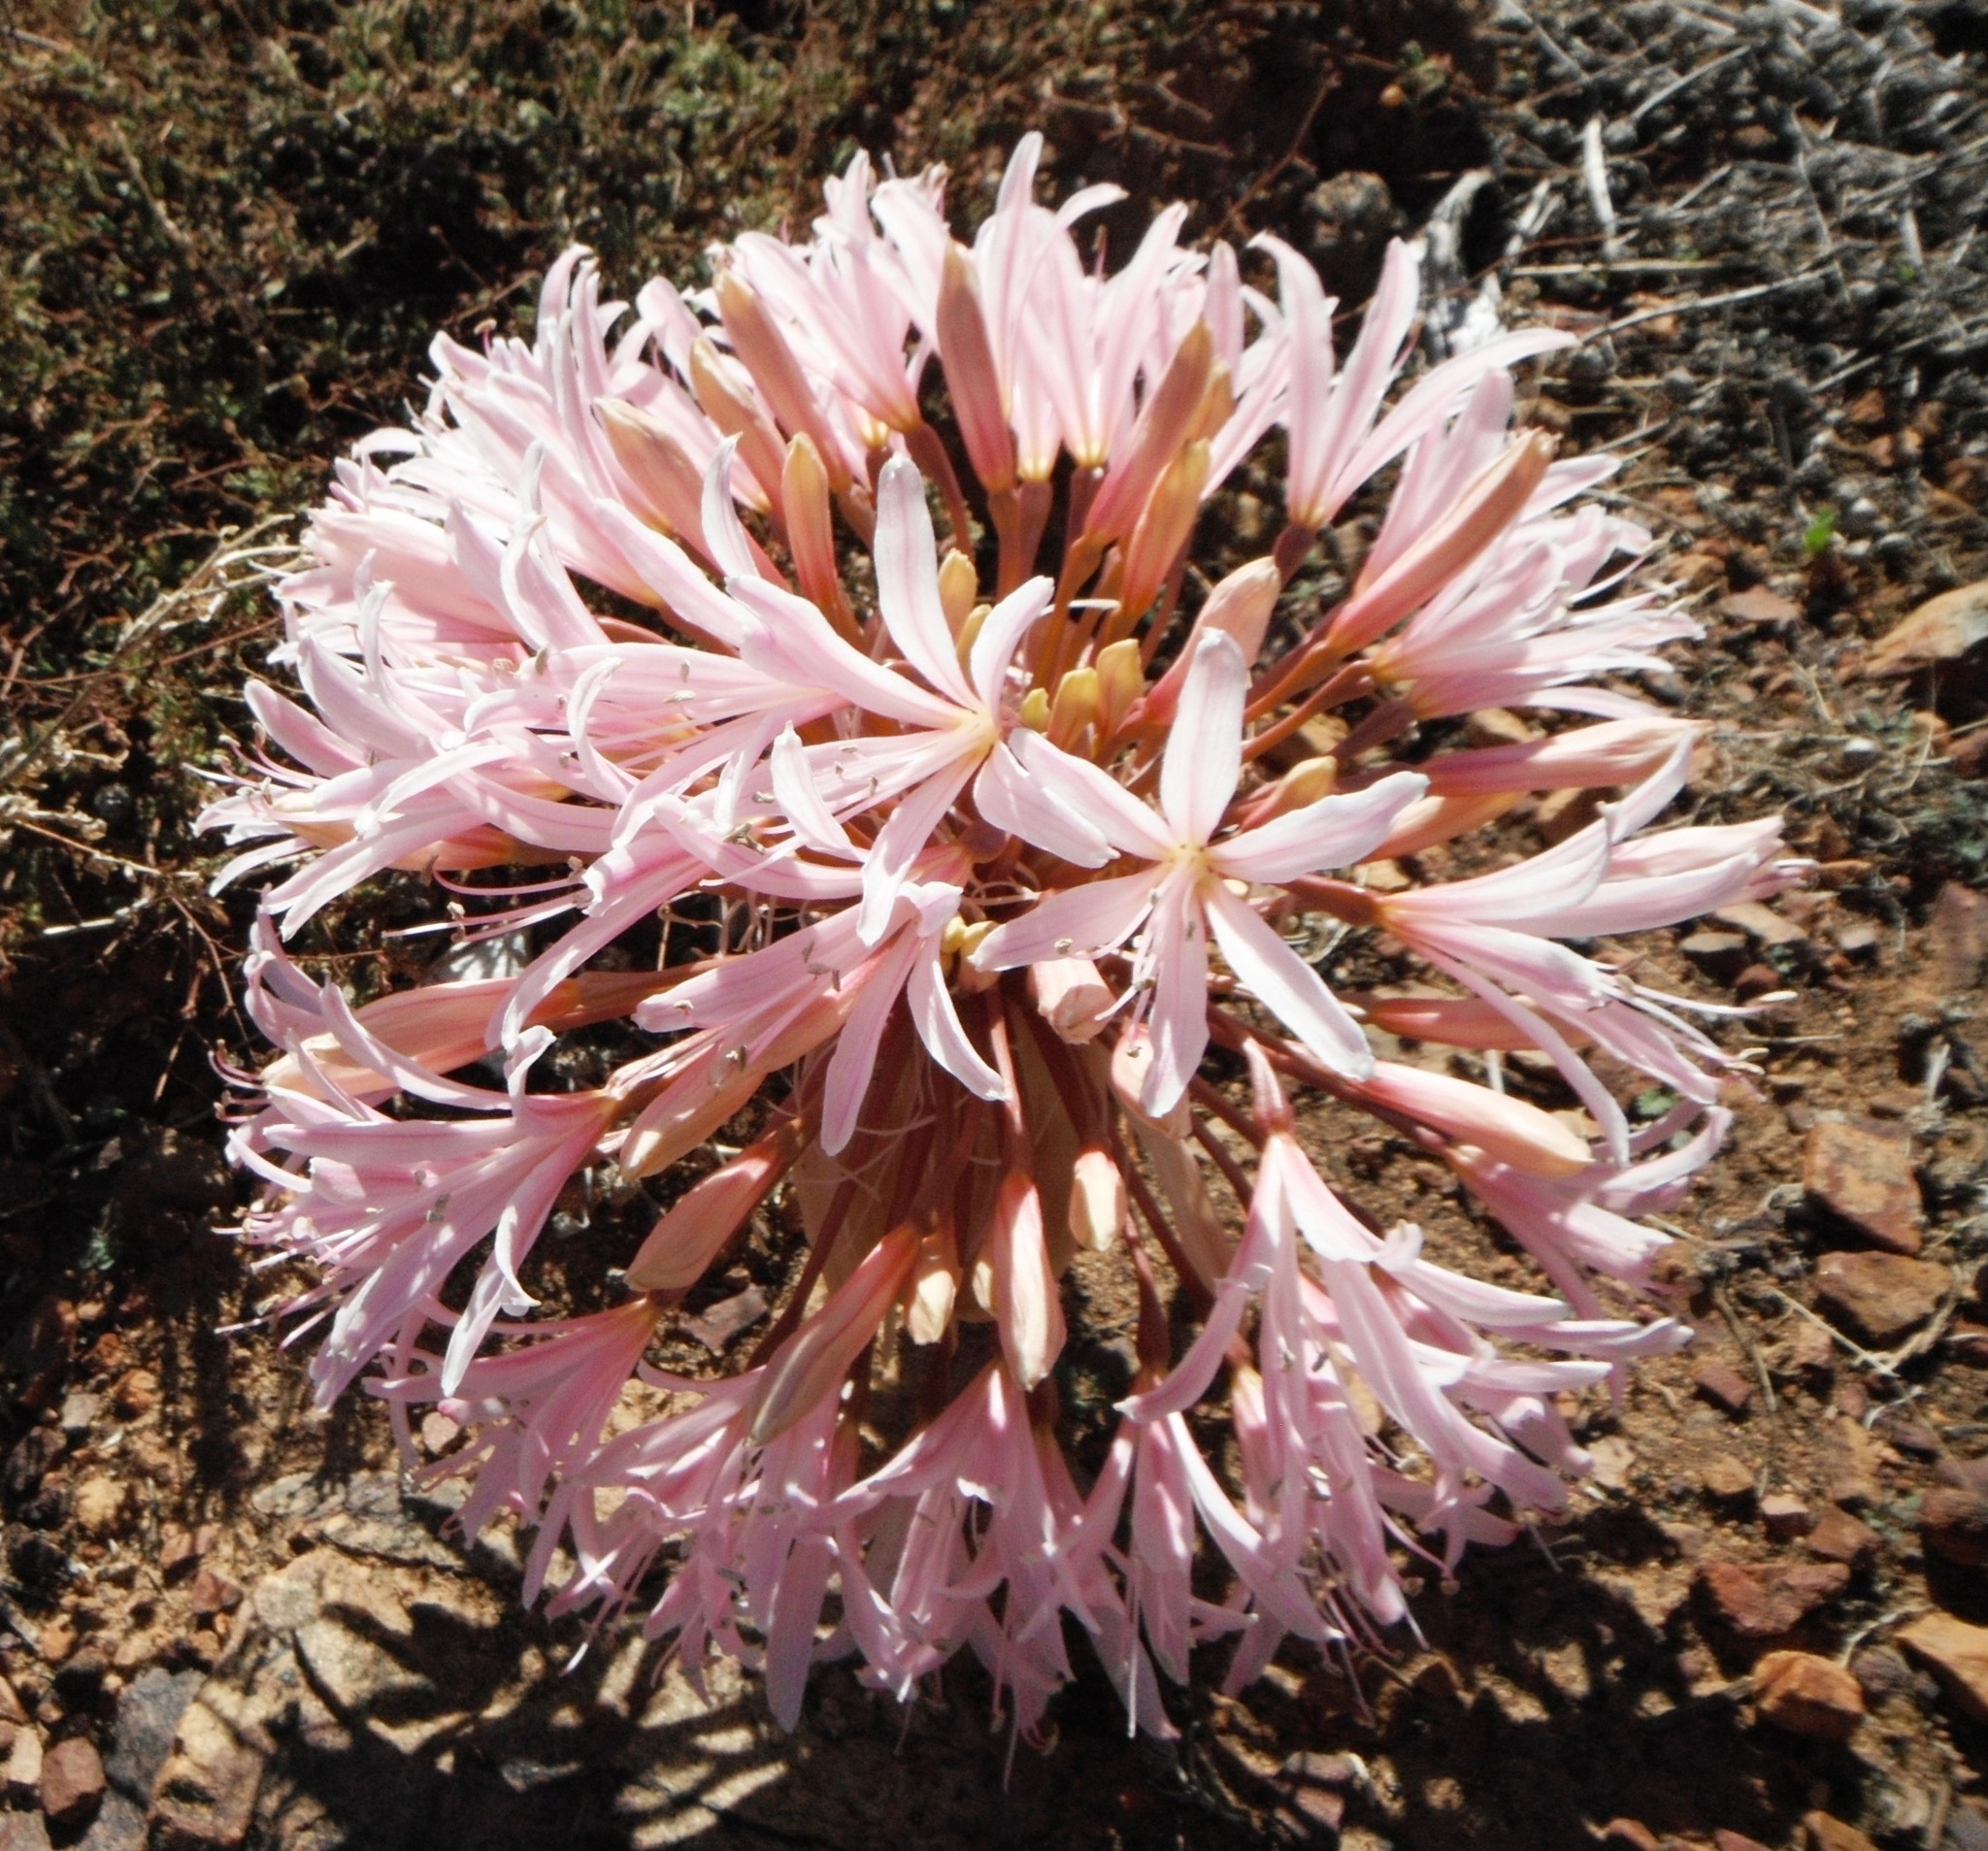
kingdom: Plantae
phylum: Tracheophyta
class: Liliopsida
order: Asparagales
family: Amaryllidaceae
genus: Brunsvigia
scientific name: Brunsvigia bosmaniae
